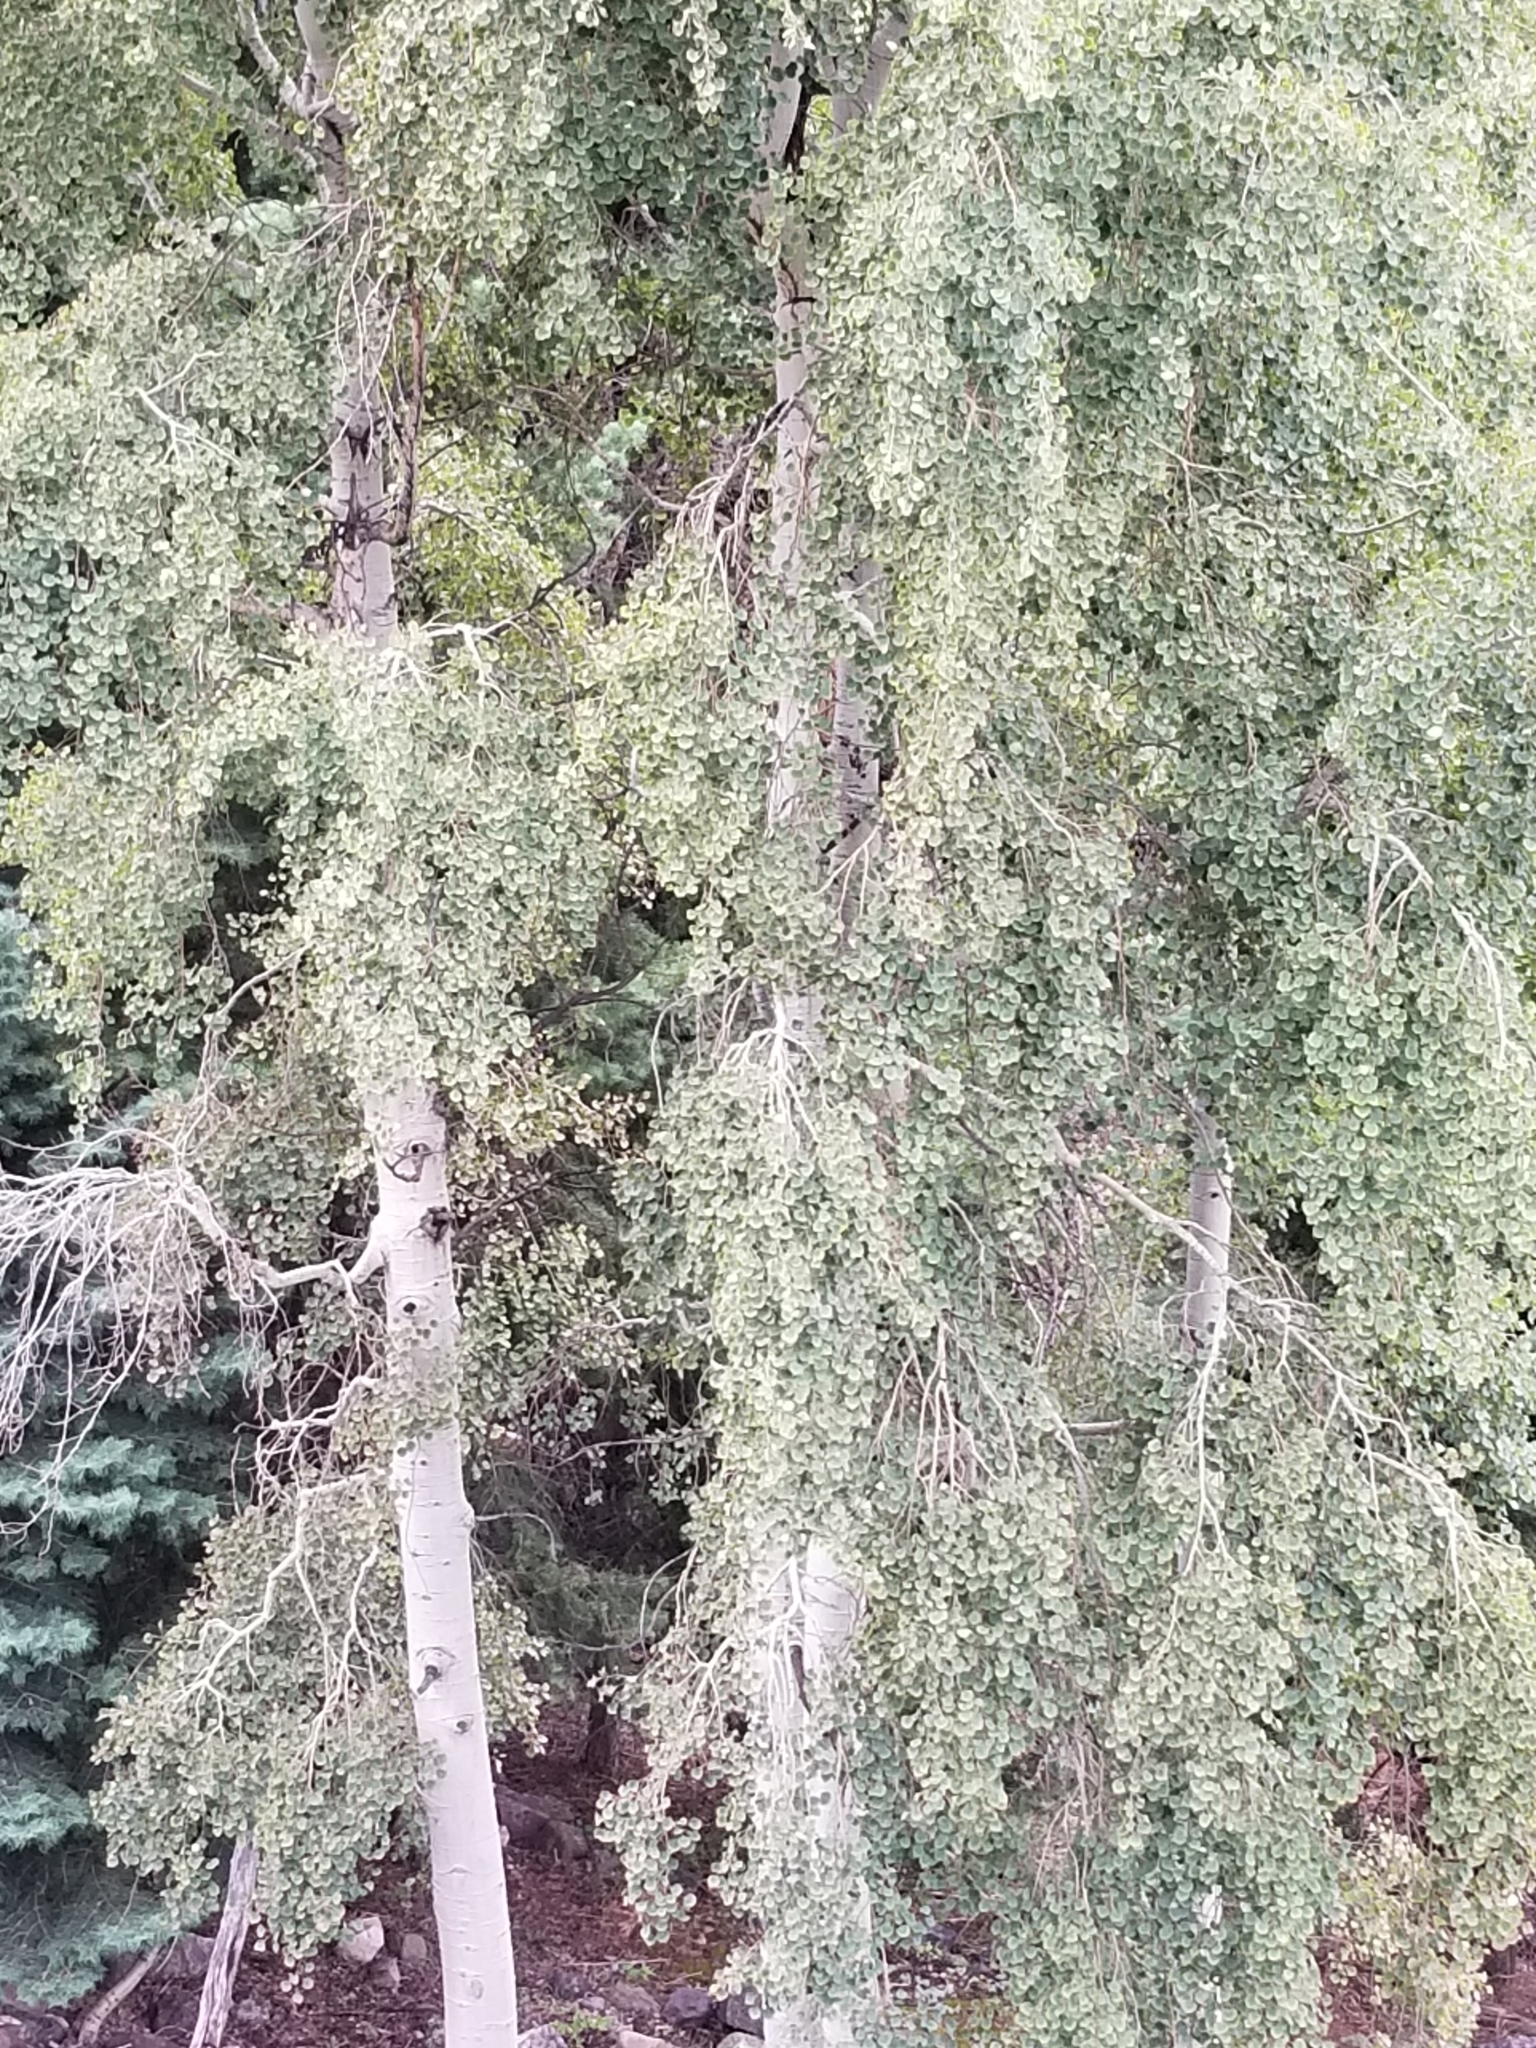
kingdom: Plantae
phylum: Tracheophyta
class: Magnoliopsida
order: Malpighiales
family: Salicaceae
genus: Populus
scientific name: Populus tremuloides
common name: Quaking aspen
